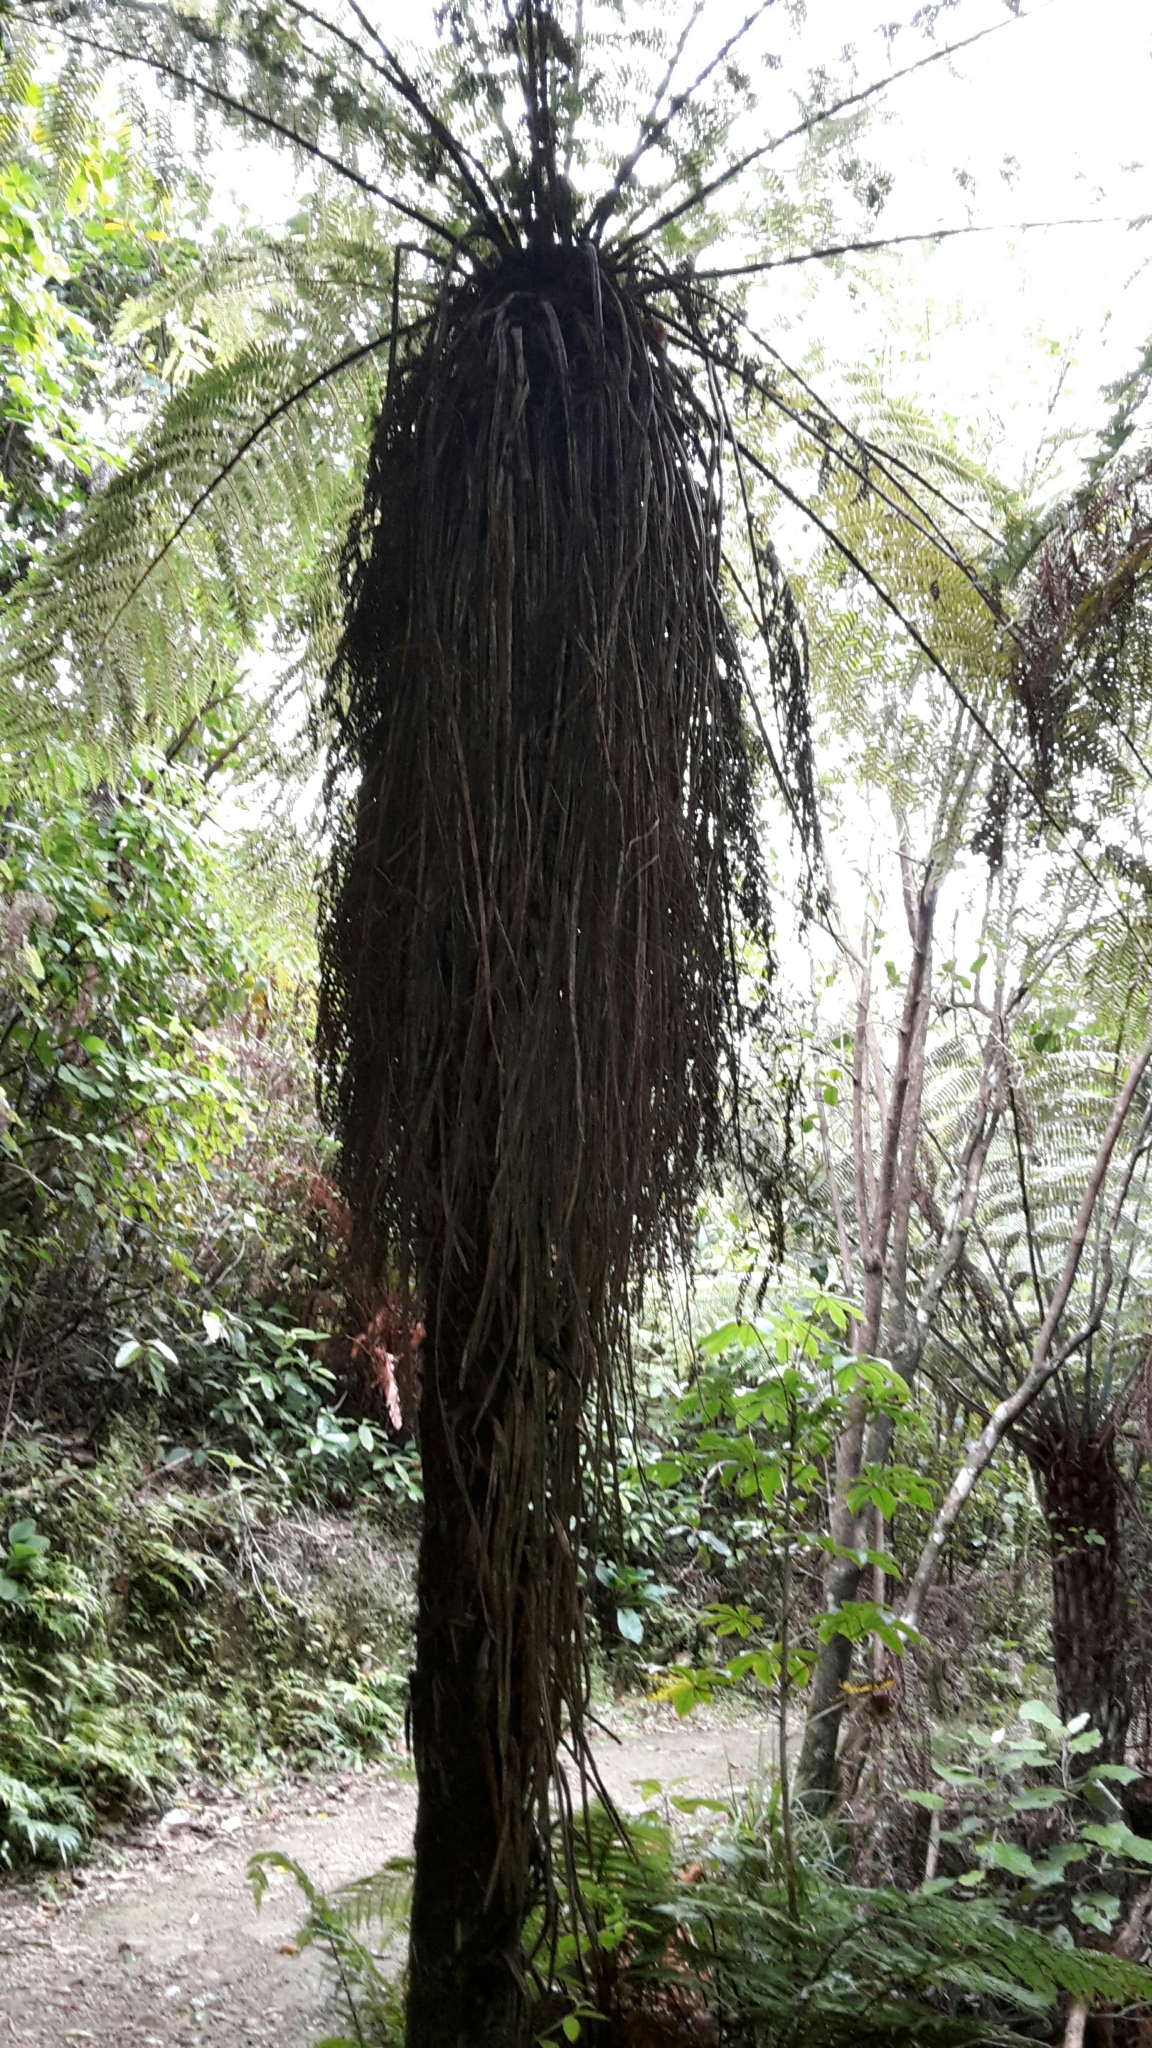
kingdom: Plantae
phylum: Tracheophyta
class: Polypodiopsida
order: Cyatheales
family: Cyatheaceae
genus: Alsophila
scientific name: Alsophila smithii
